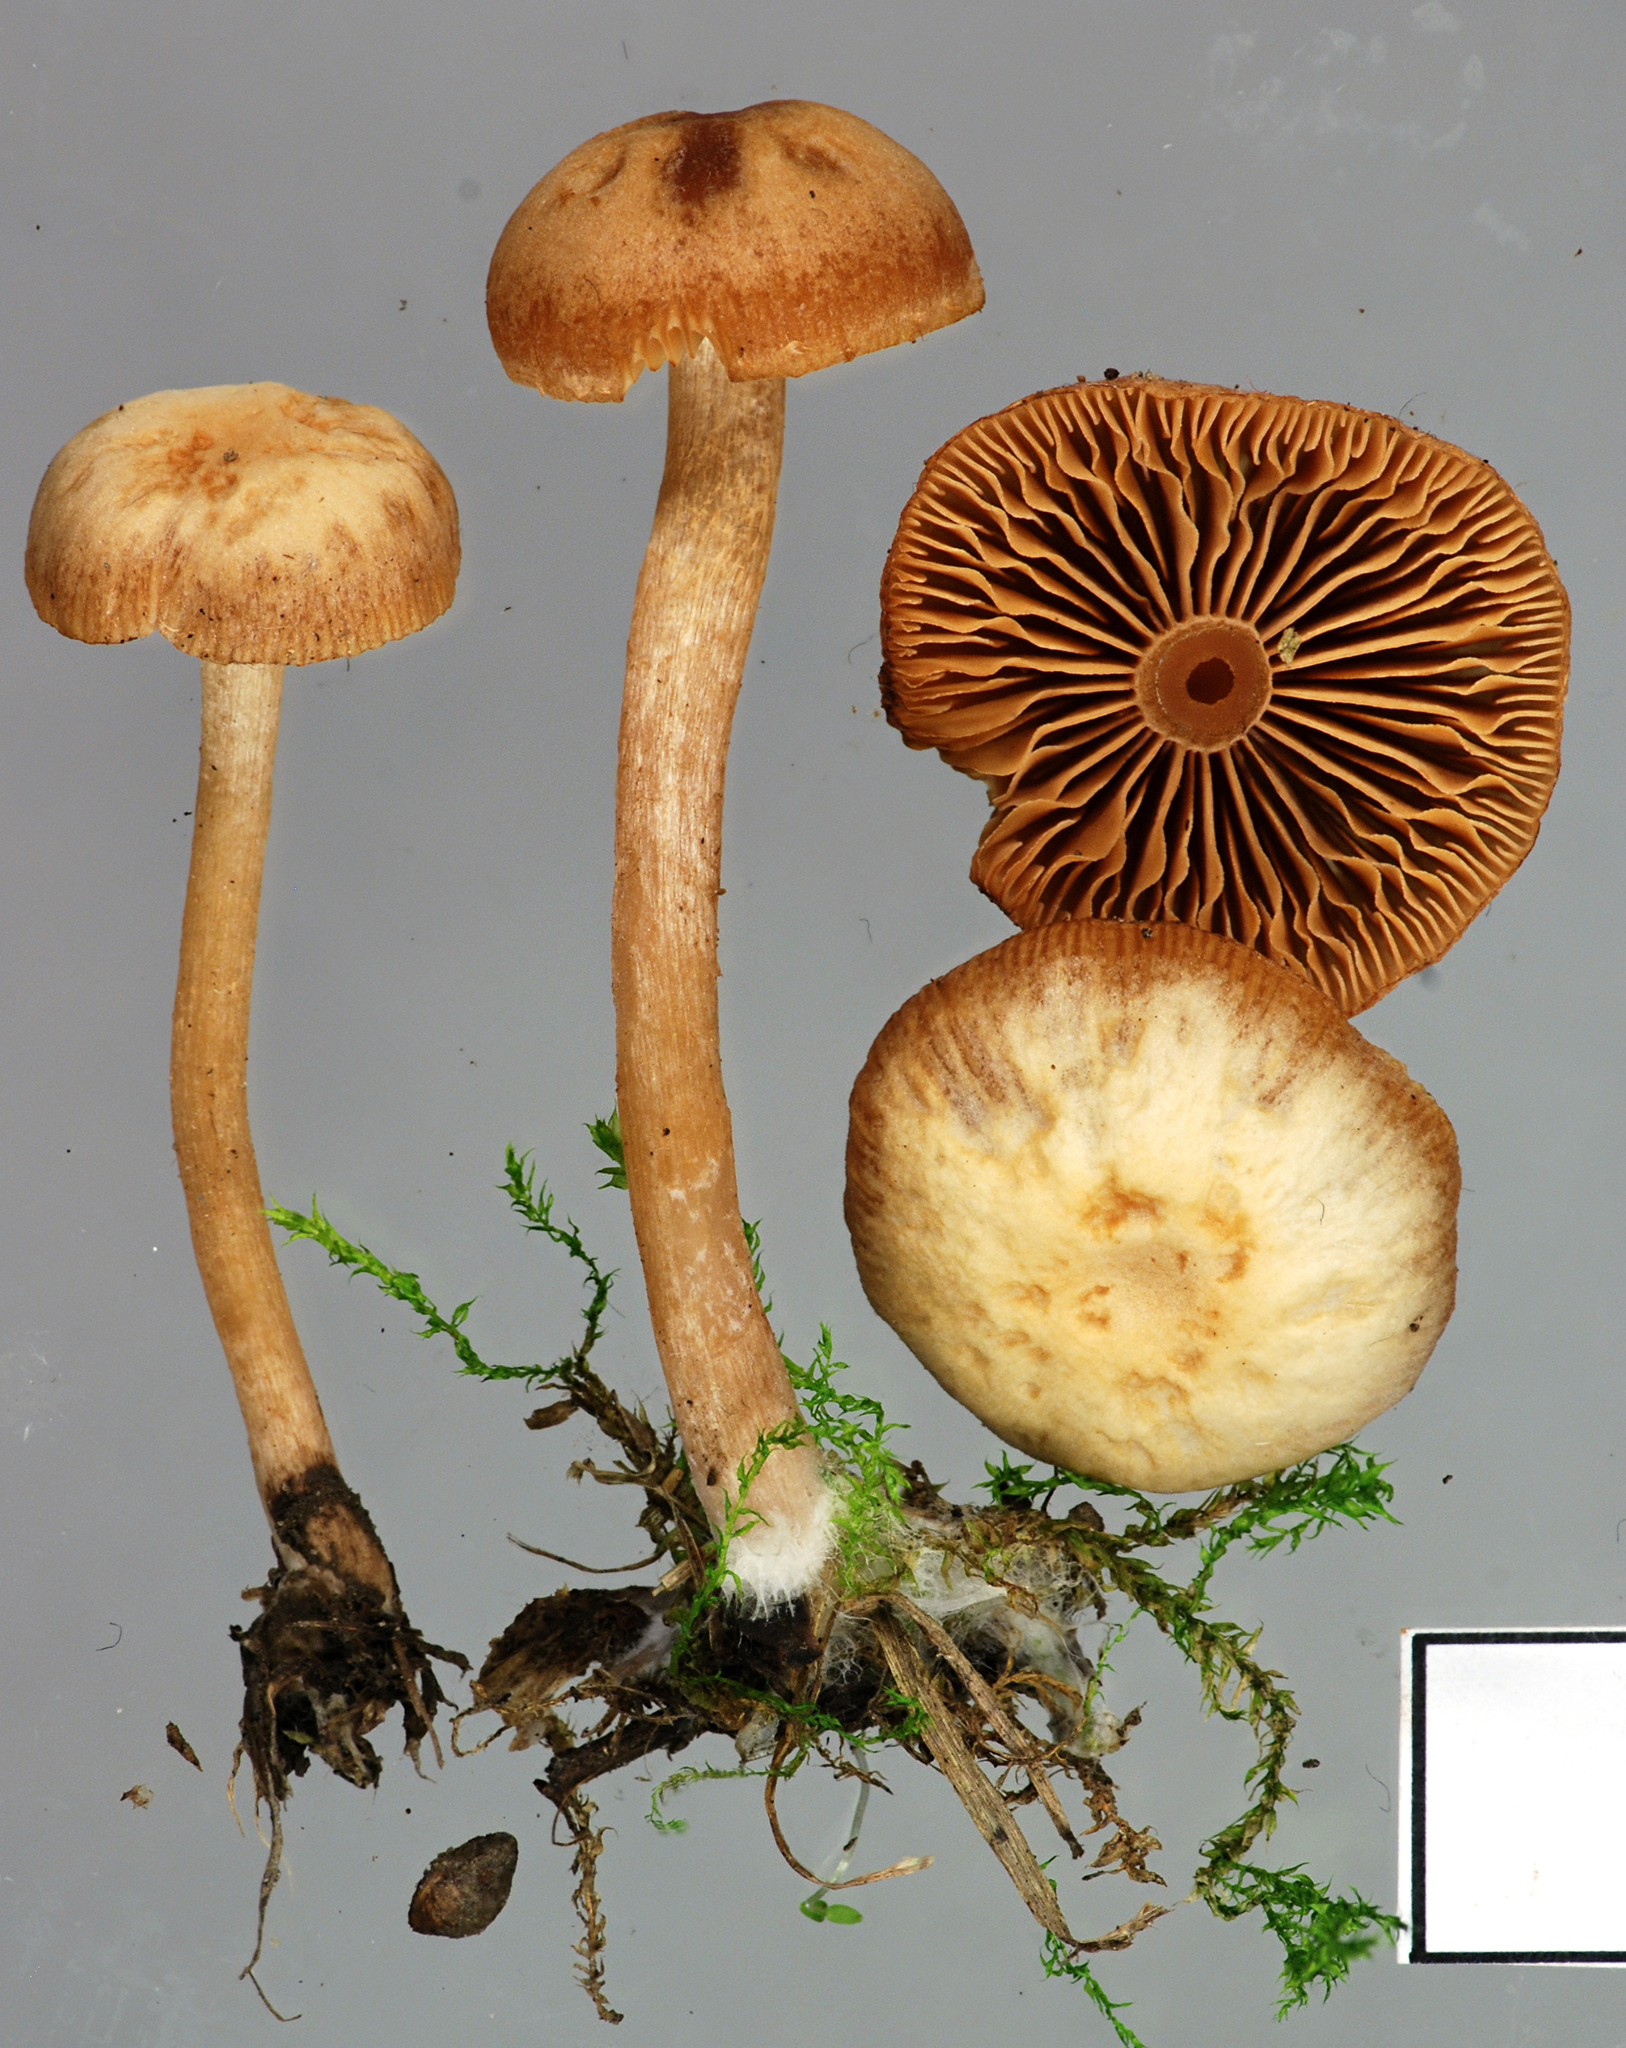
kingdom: Fungi
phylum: Basidiomycota
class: Agaricomycetes
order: Agaricales
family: Tubariaceae
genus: Tubaria
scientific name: Tubaria furfuracea
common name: Scurfy twiglet
